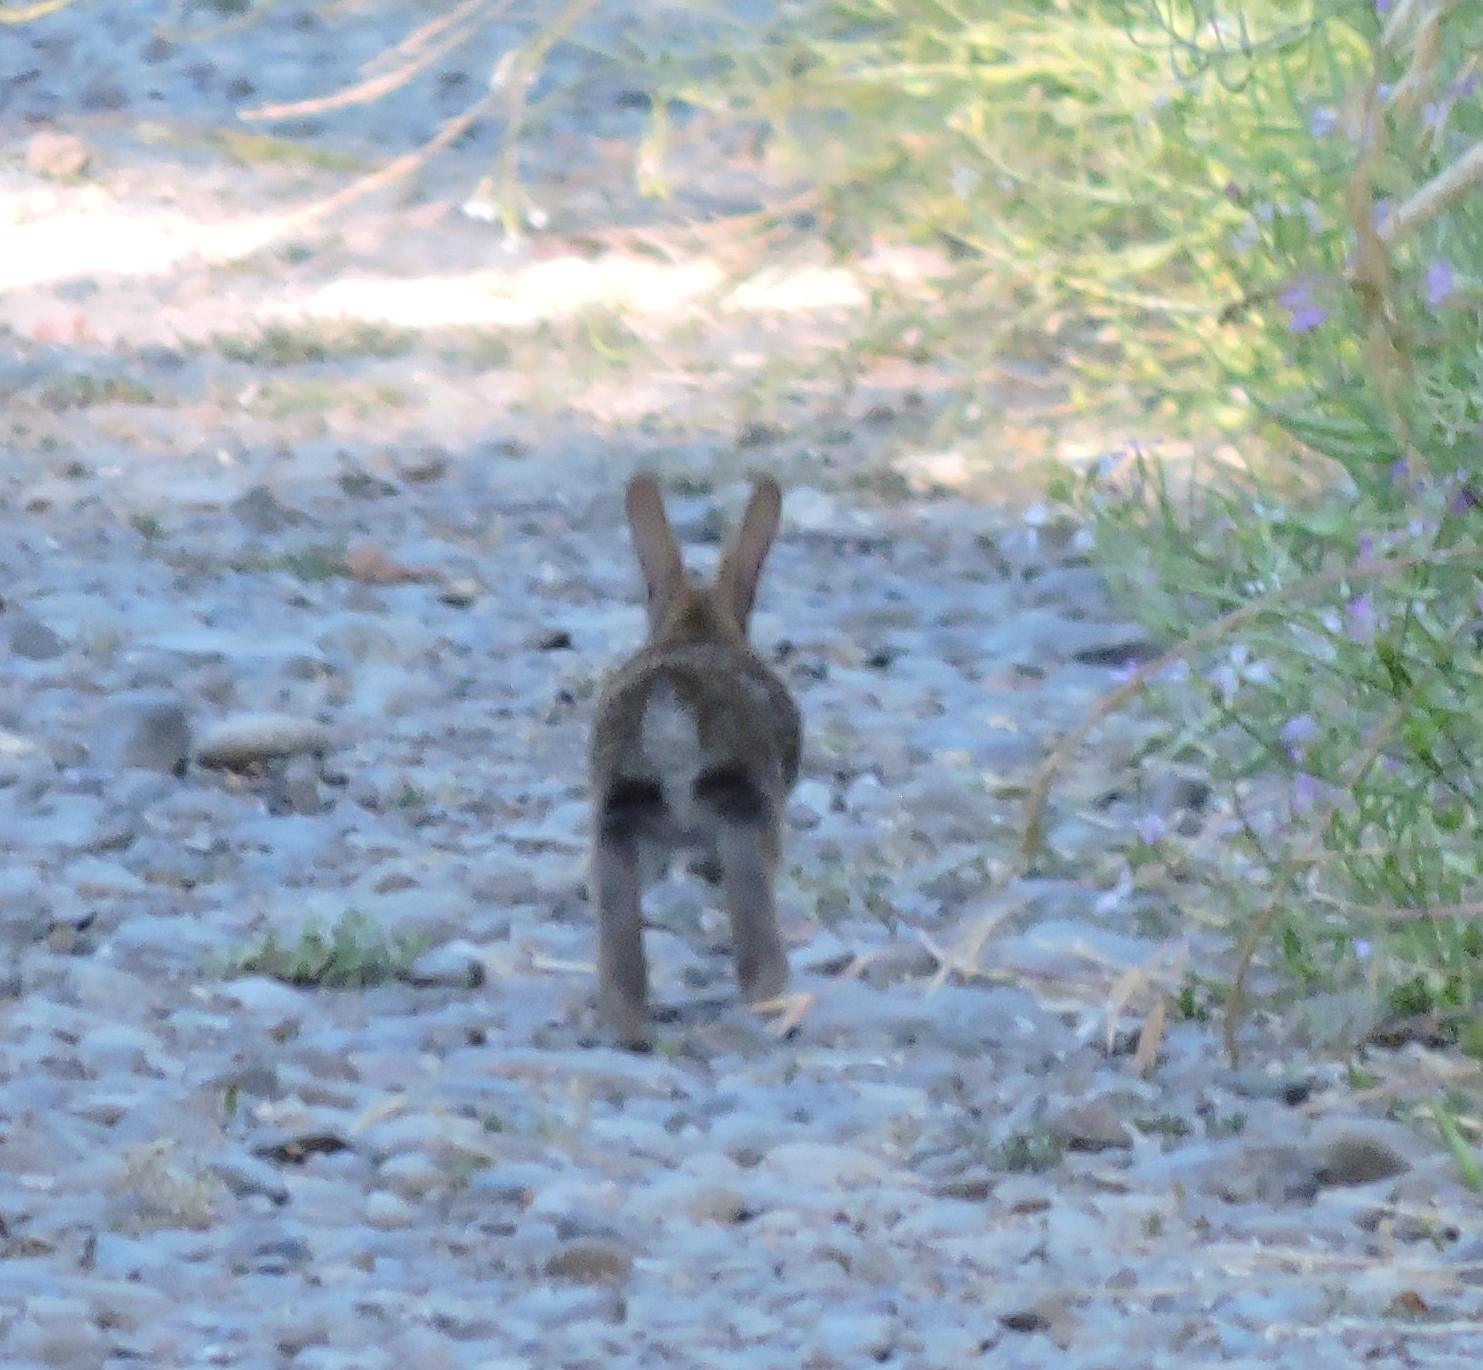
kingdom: Animalia
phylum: Chordata
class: Mammalia
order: Lagomorpha
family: Leporidae
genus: Sylvilagus
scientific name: Sylvilagus bachmani
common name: Brush rabbit
